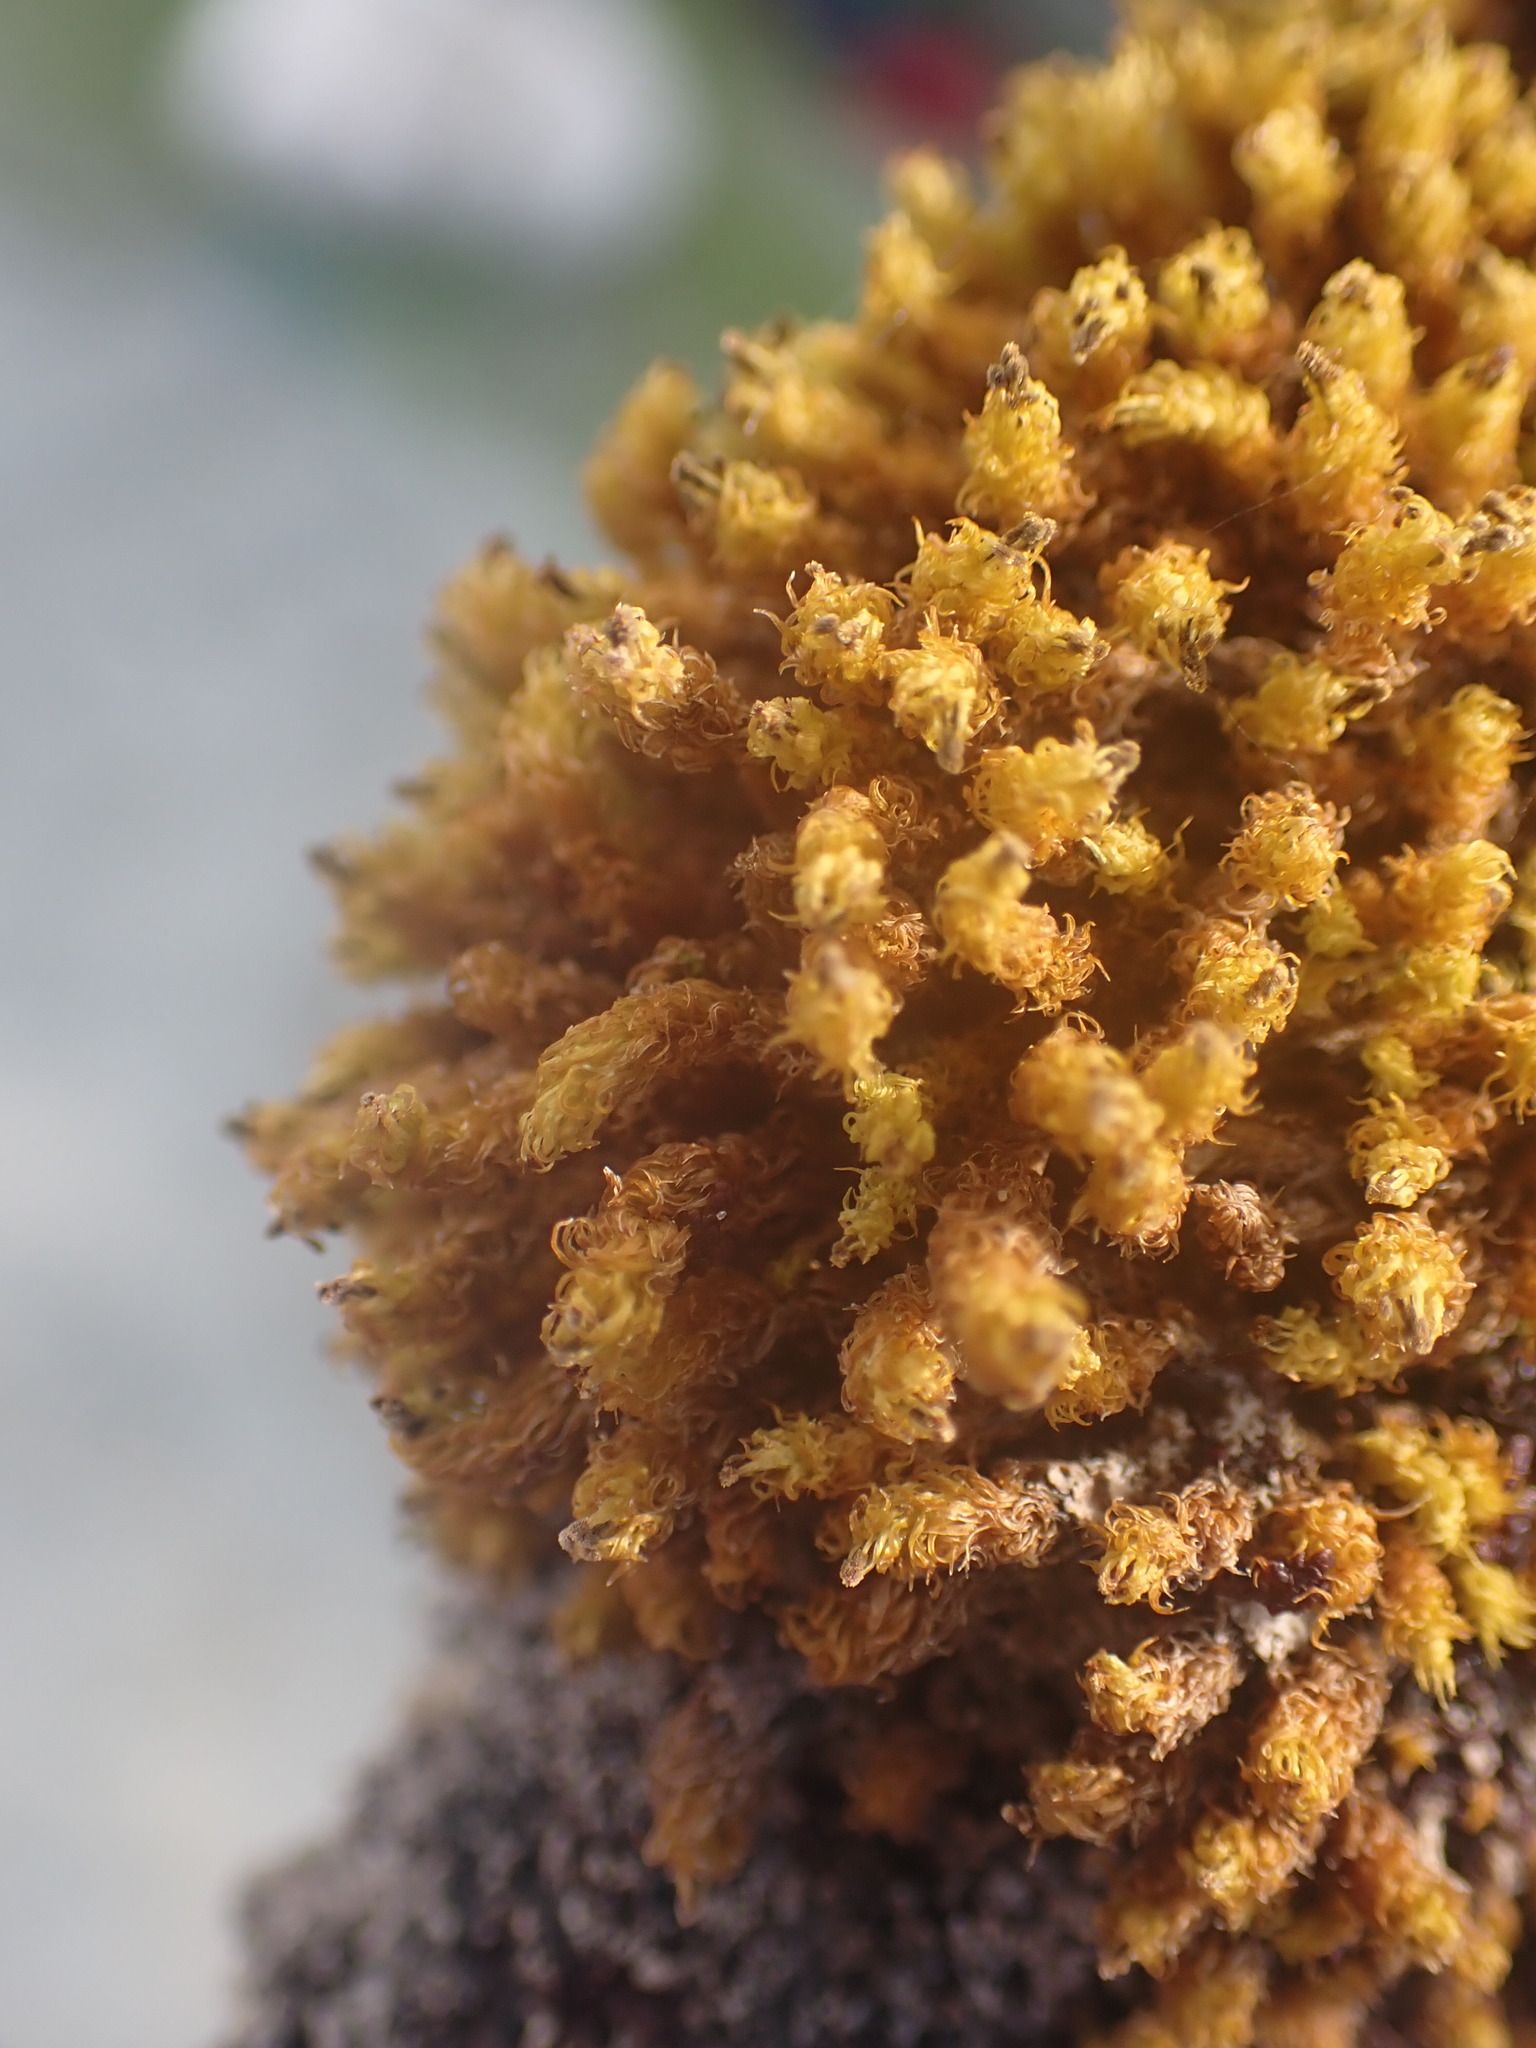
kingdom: Plantae
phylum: Bryophyta
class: Bryopsida
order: Orthotrichales
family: Orthotrichaceae
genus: Plenogemma
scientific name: Plenogemma phyllantha
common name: Frizzled pincushion
